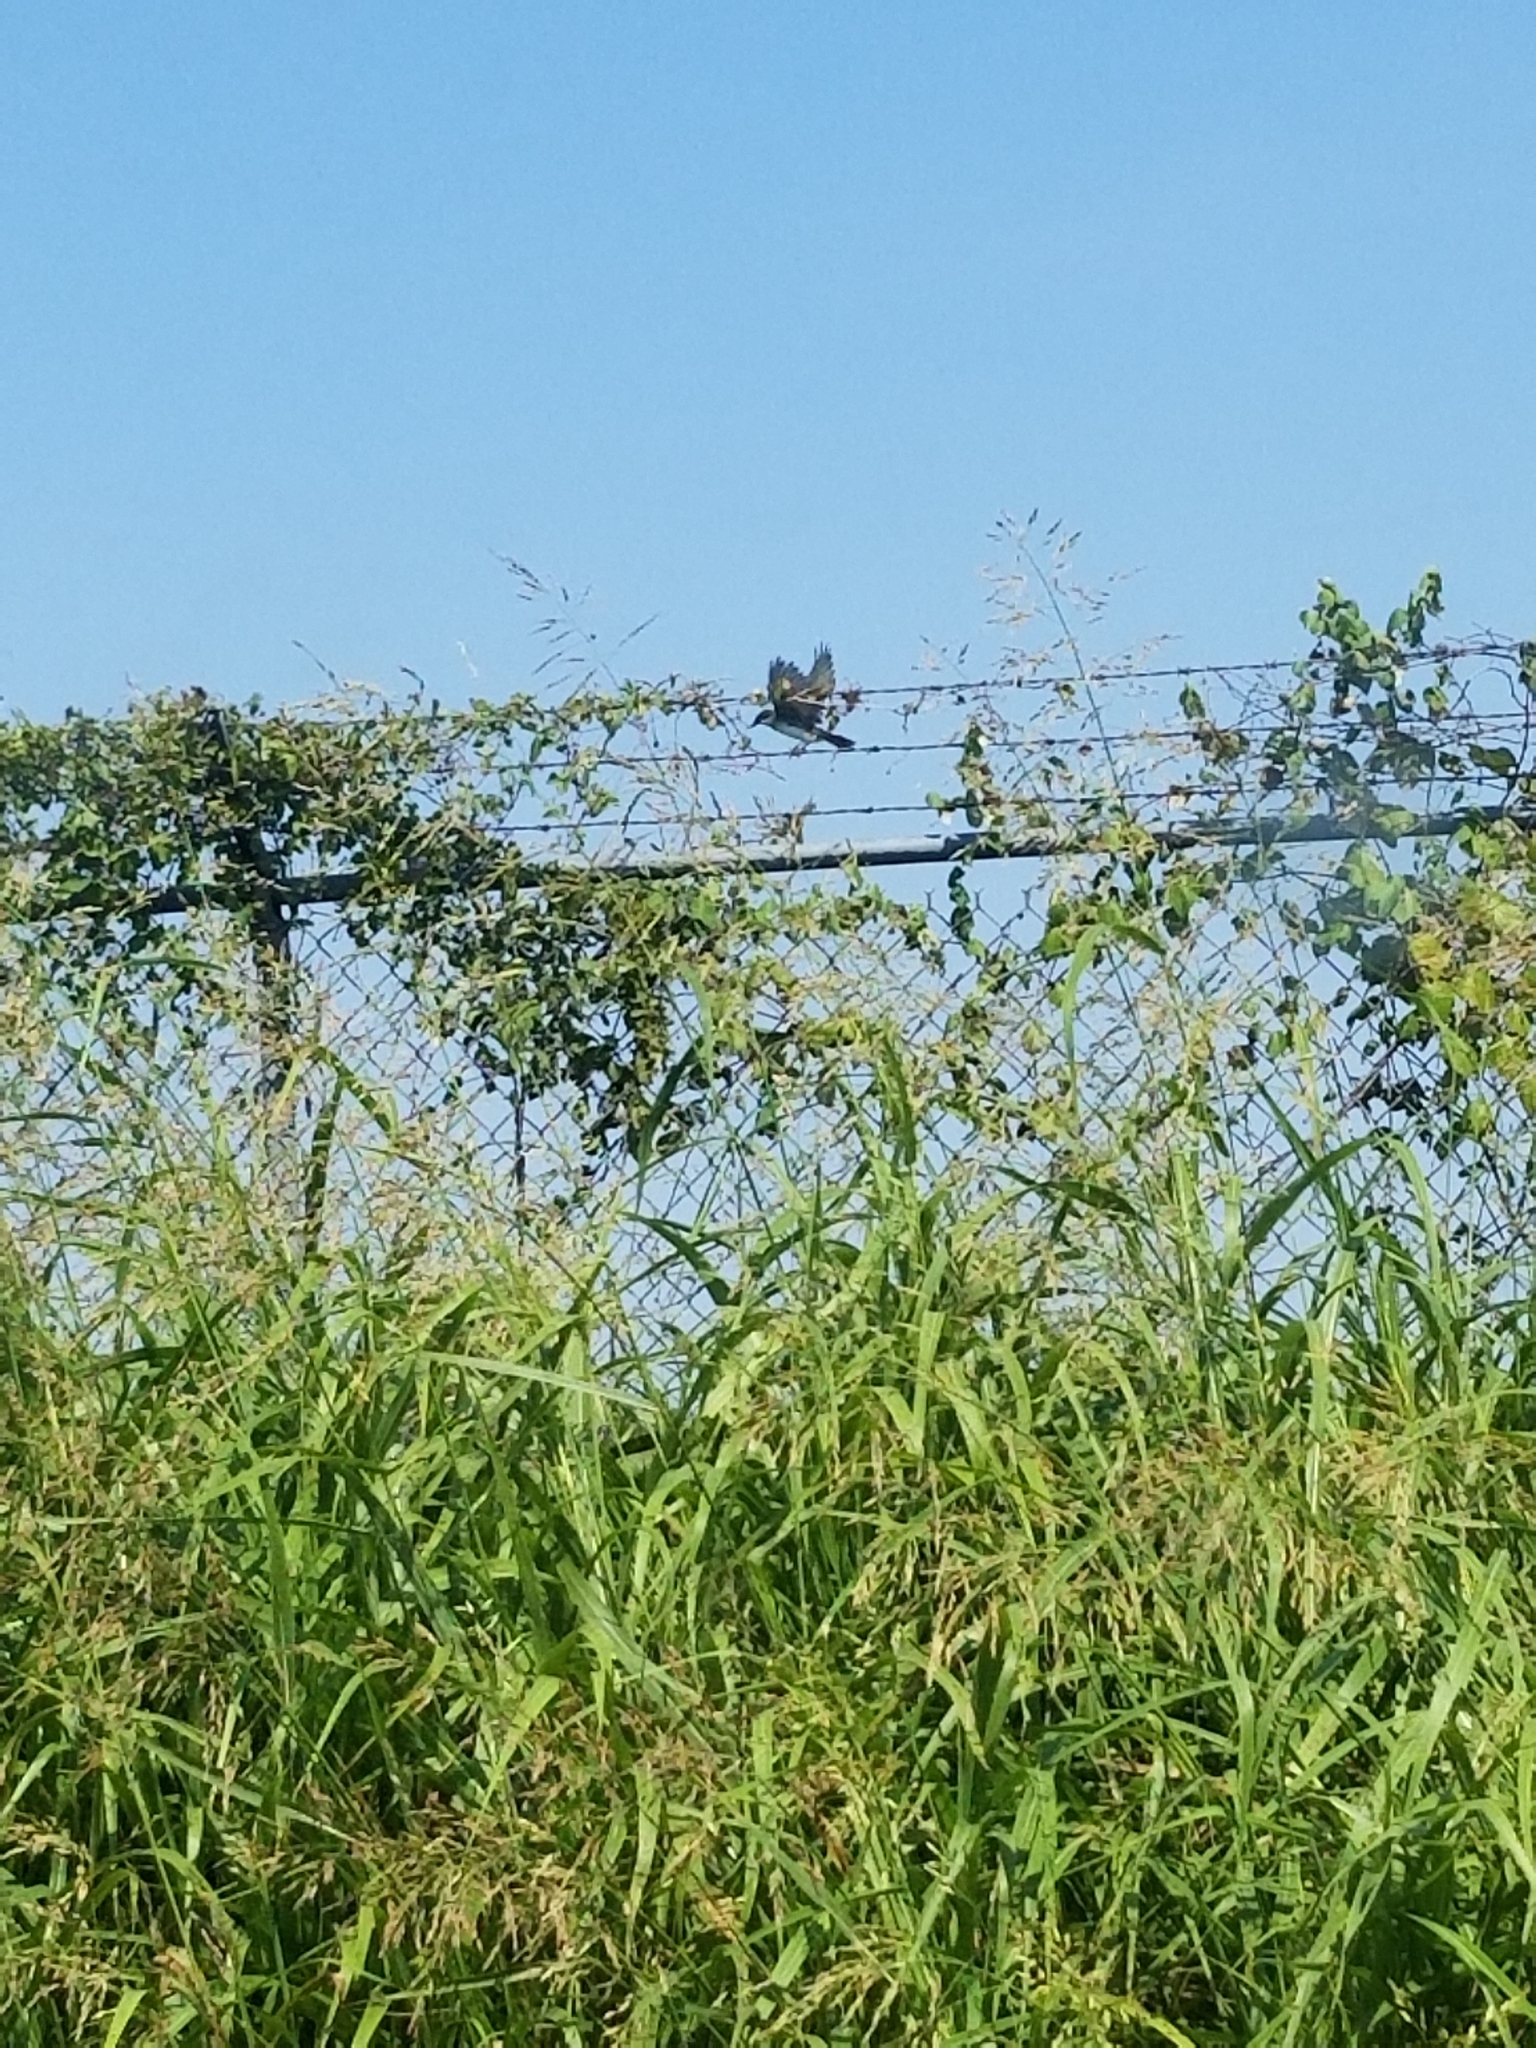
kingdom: Animalia
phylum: Chordata
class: Aves
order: Passeriformes
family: Tyrannidae
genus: Tyrannus
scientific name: Tyrannus tyrannus
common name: Eastern kingbird
